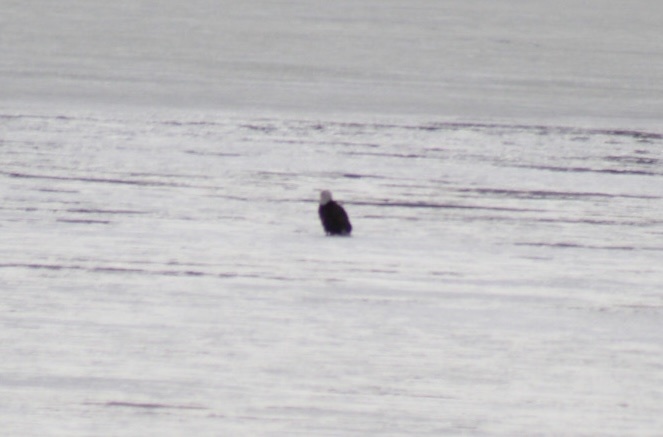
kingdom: Animalia
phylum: Chordata
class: Aves
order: Accipitriformes
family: Accipitridae
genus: Haliaeetus
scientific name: Haliaeetus leucocephalus
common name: Bald eagle
